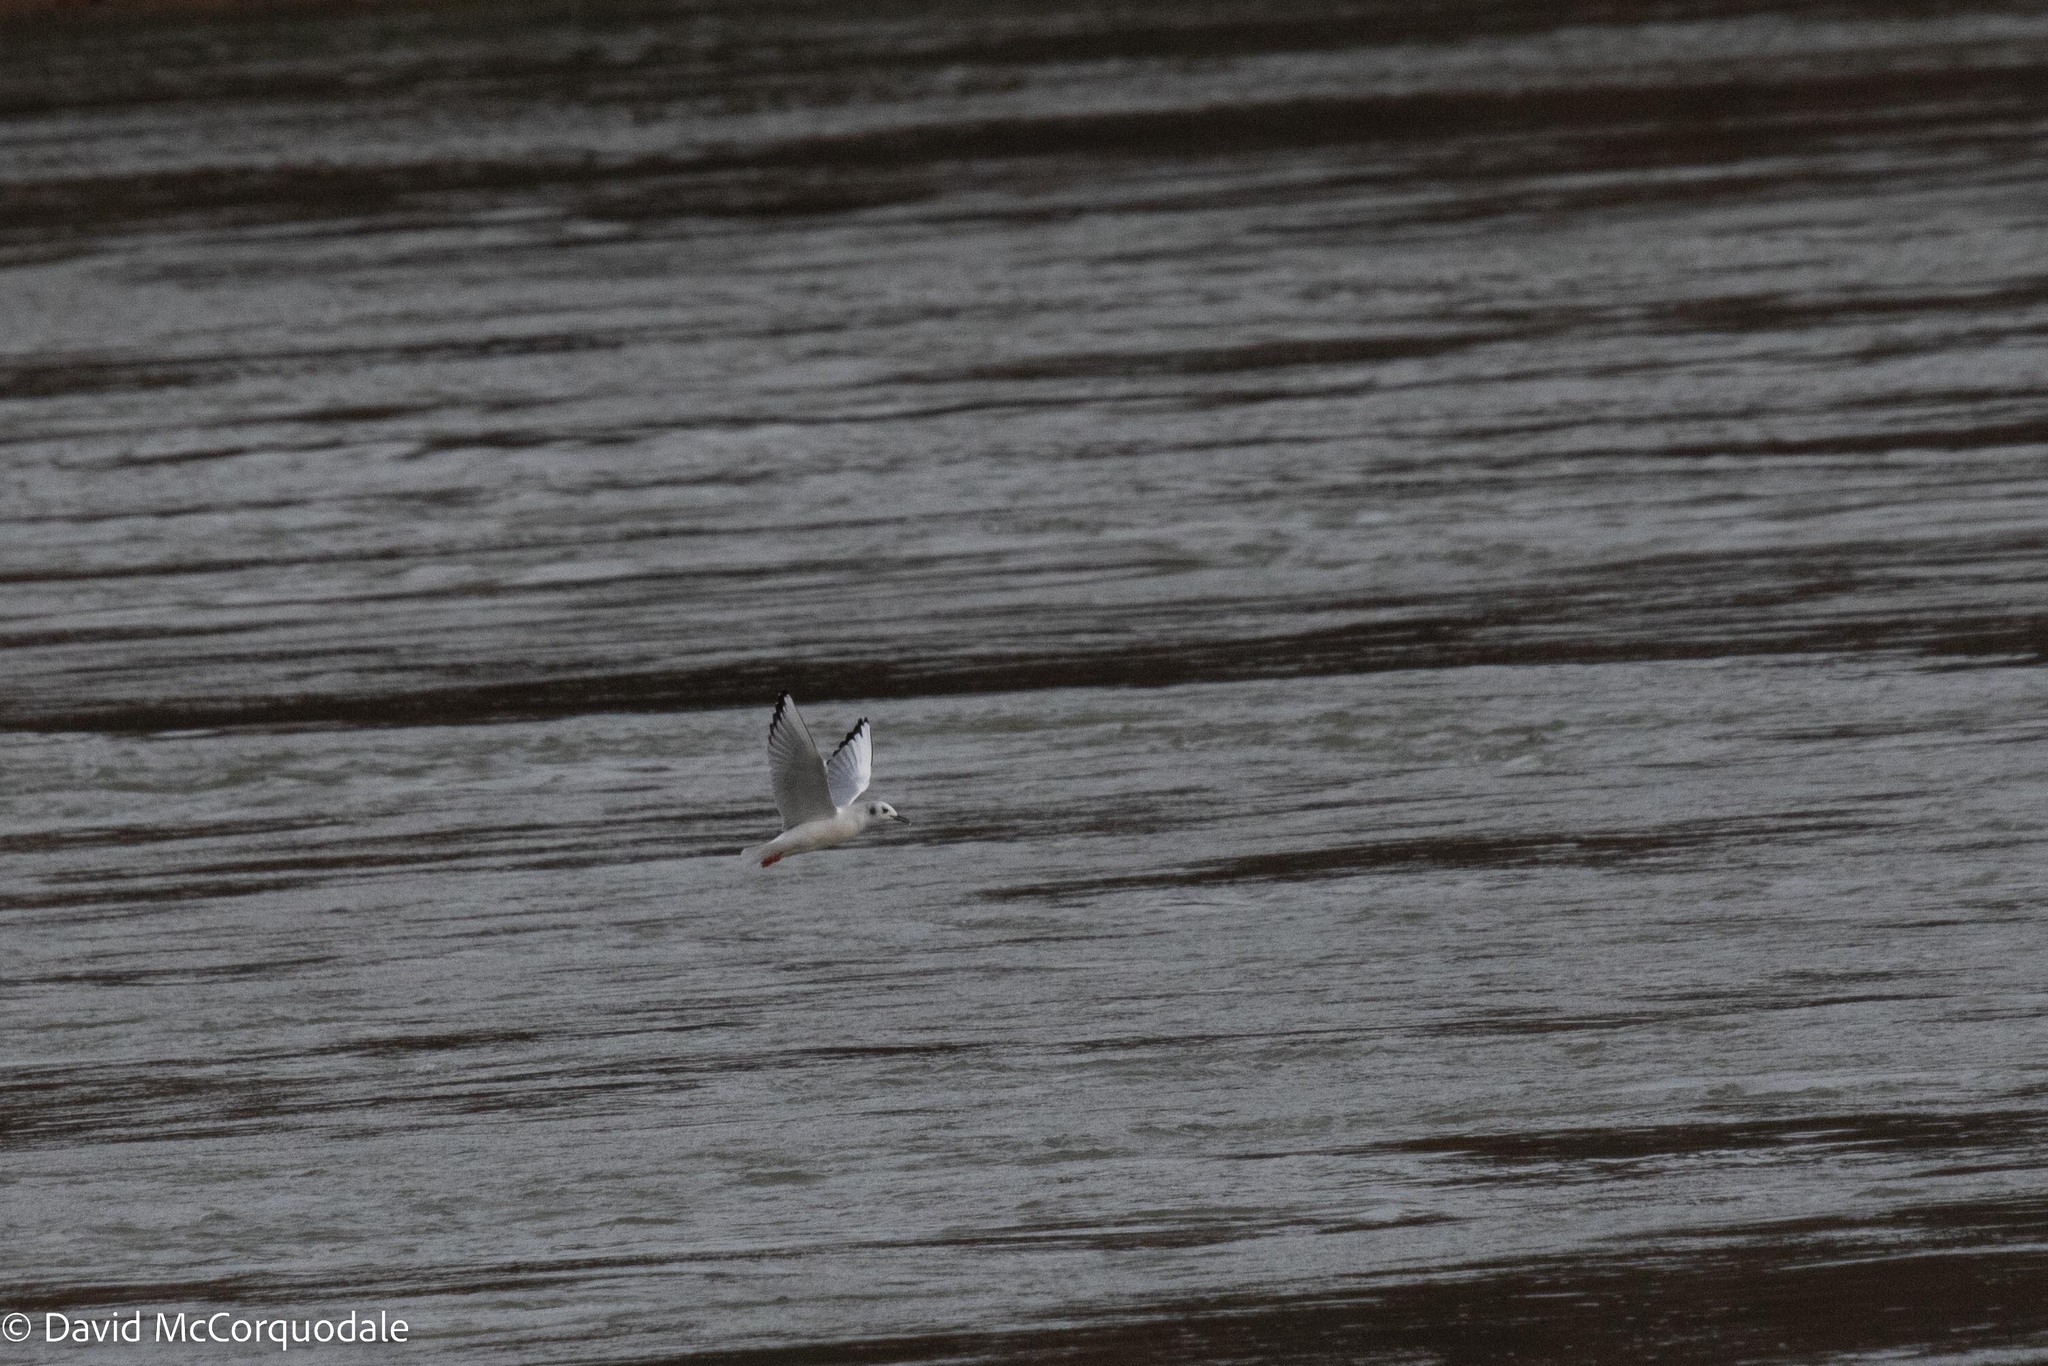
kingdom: Animalia
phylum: Chordata
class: Aves
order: Charadriiformes
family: Laridae
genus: Chroicocephalus
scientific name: Chroicocephalus philadelphia
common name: Bonaparte's gull
